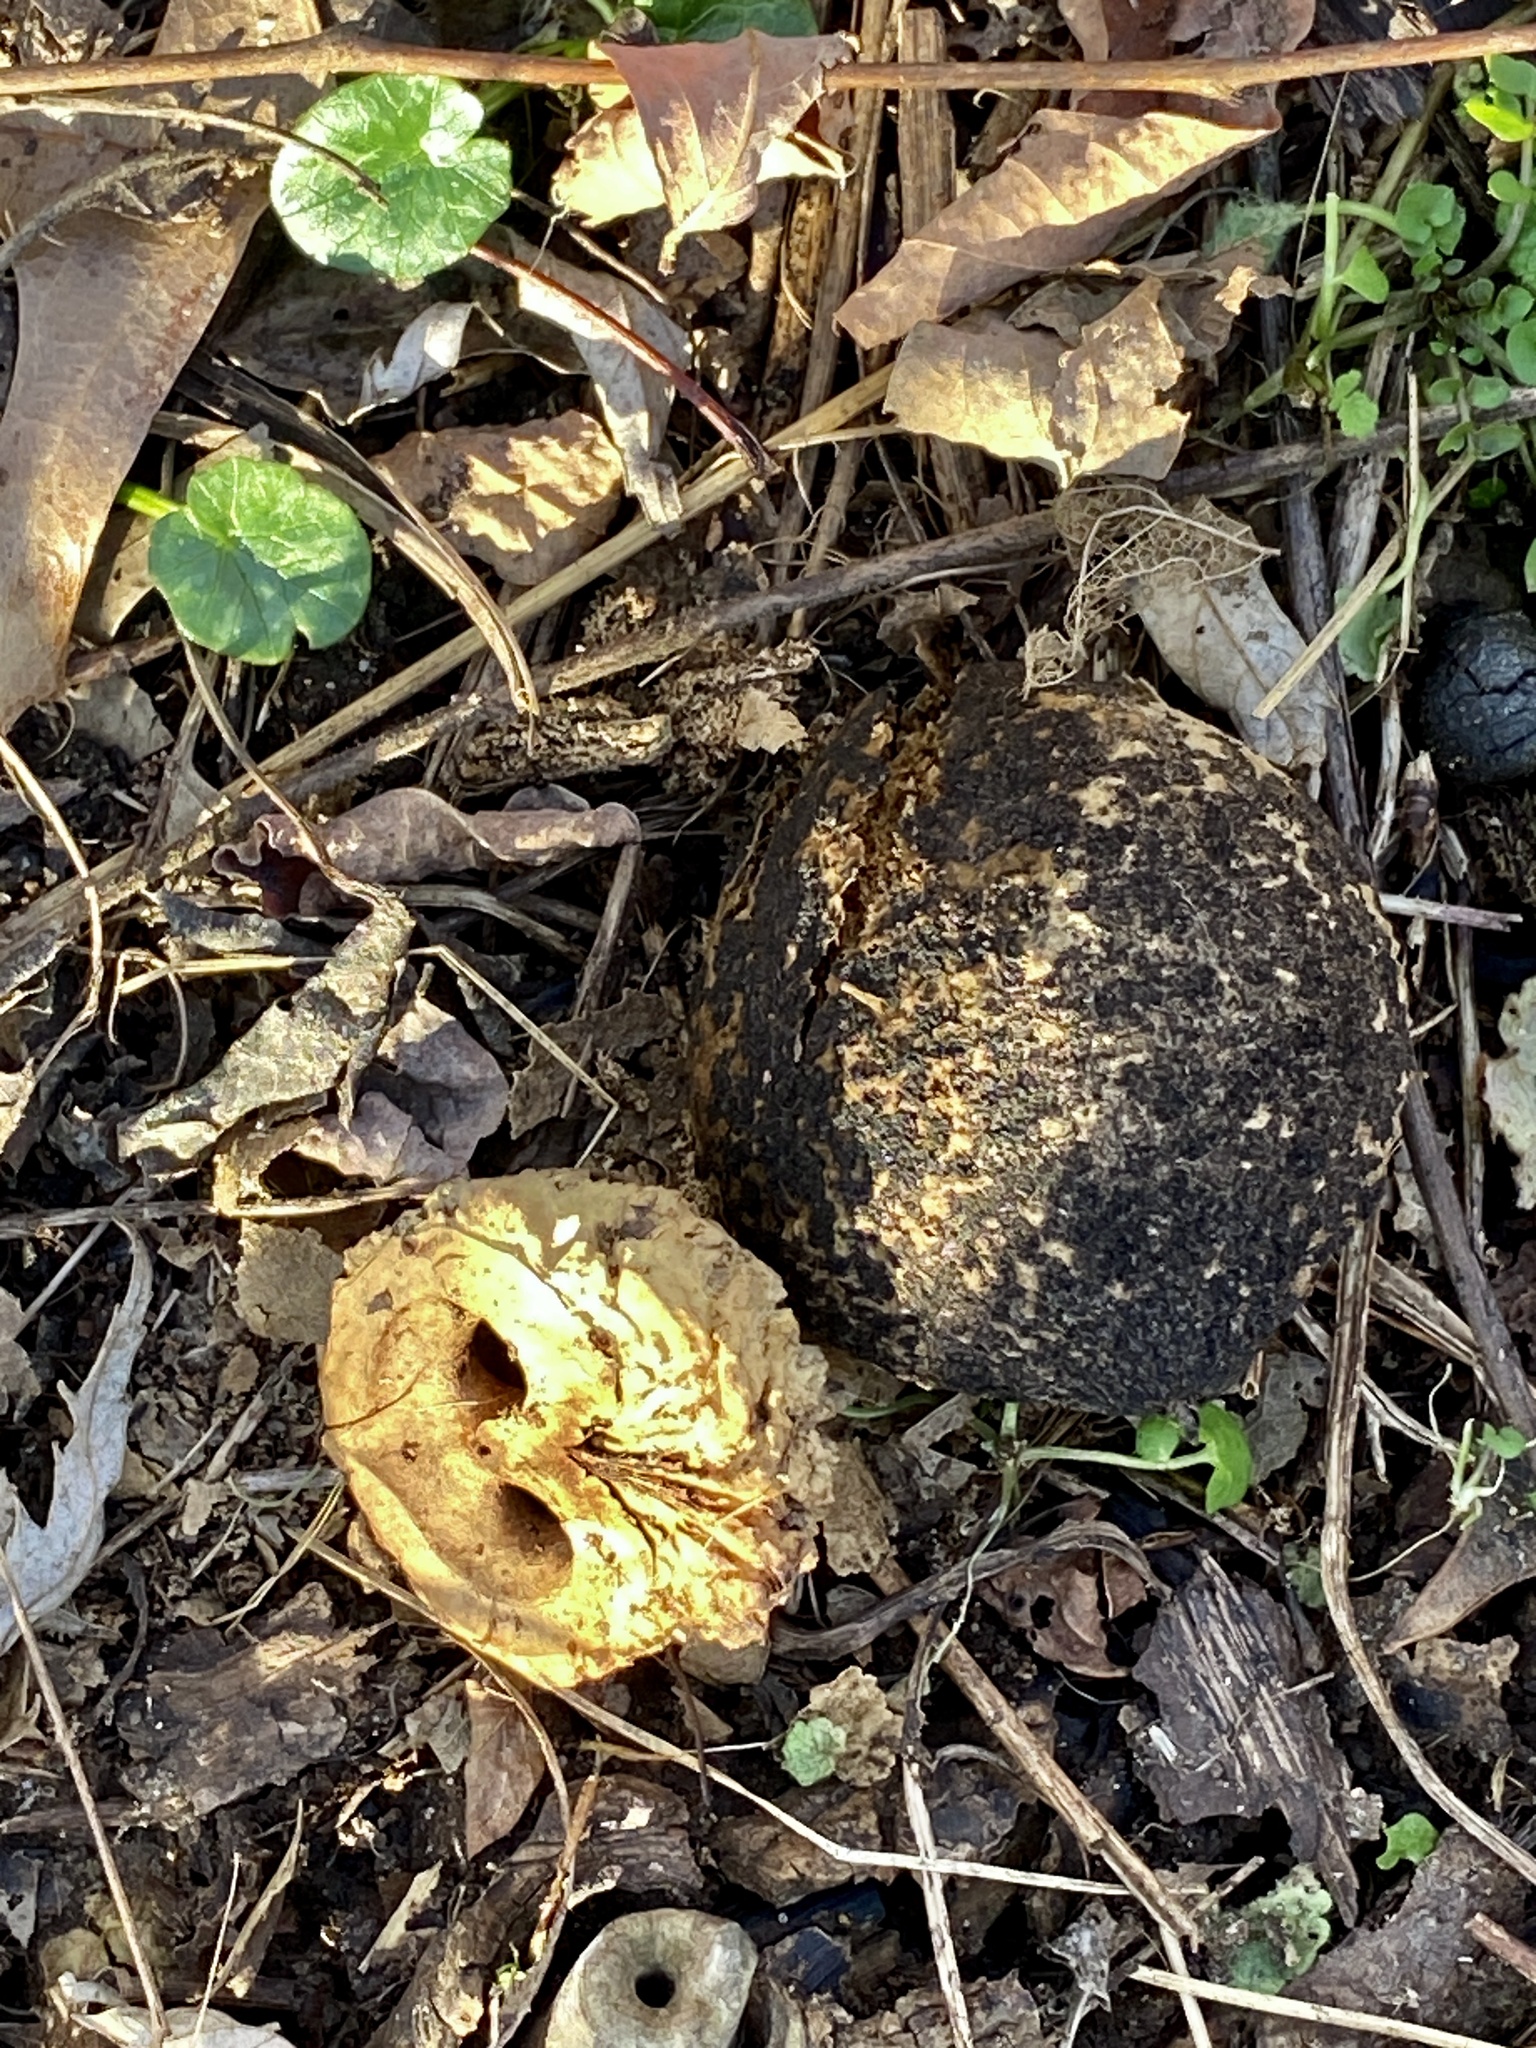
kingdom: Plantae
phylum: Tracheophyta
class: Magnoliopsida
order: Fagales
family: Juglandaceae
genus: Juglans
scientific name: Juglans nigra
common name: Black walnut
